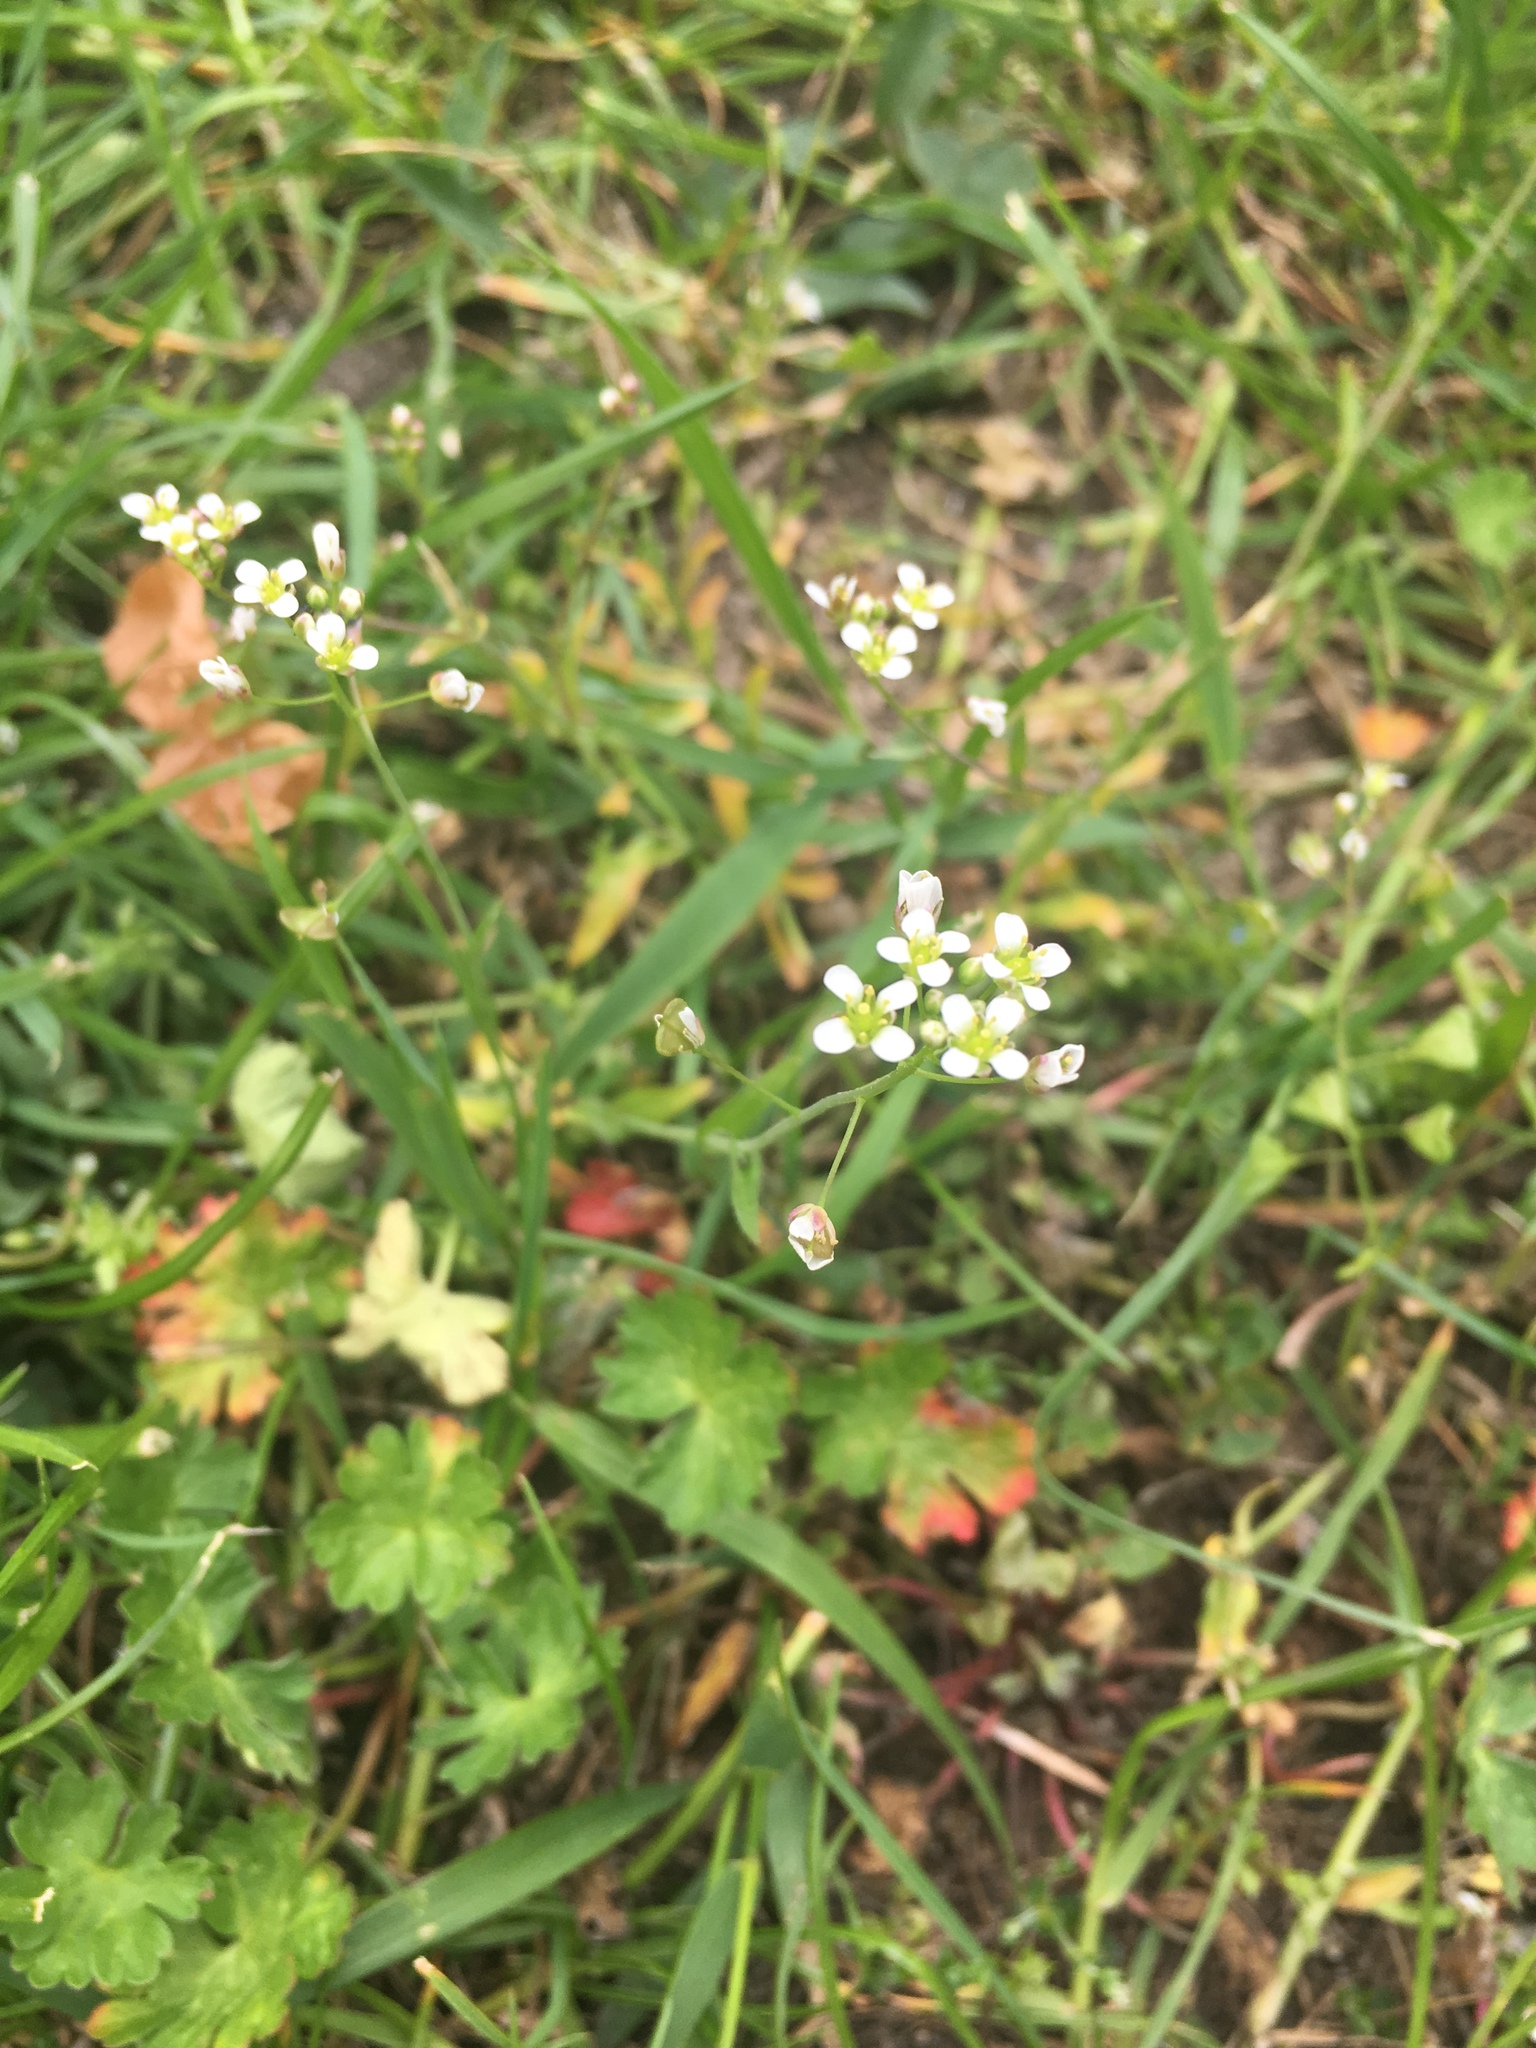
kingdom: Plantae
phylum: Tracheophyta
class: Magnoliopsida
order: Brassicales
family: Brassicaceae
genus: Capsella
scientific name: Capsella bursa-pastoris
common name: Shepherd's purse
